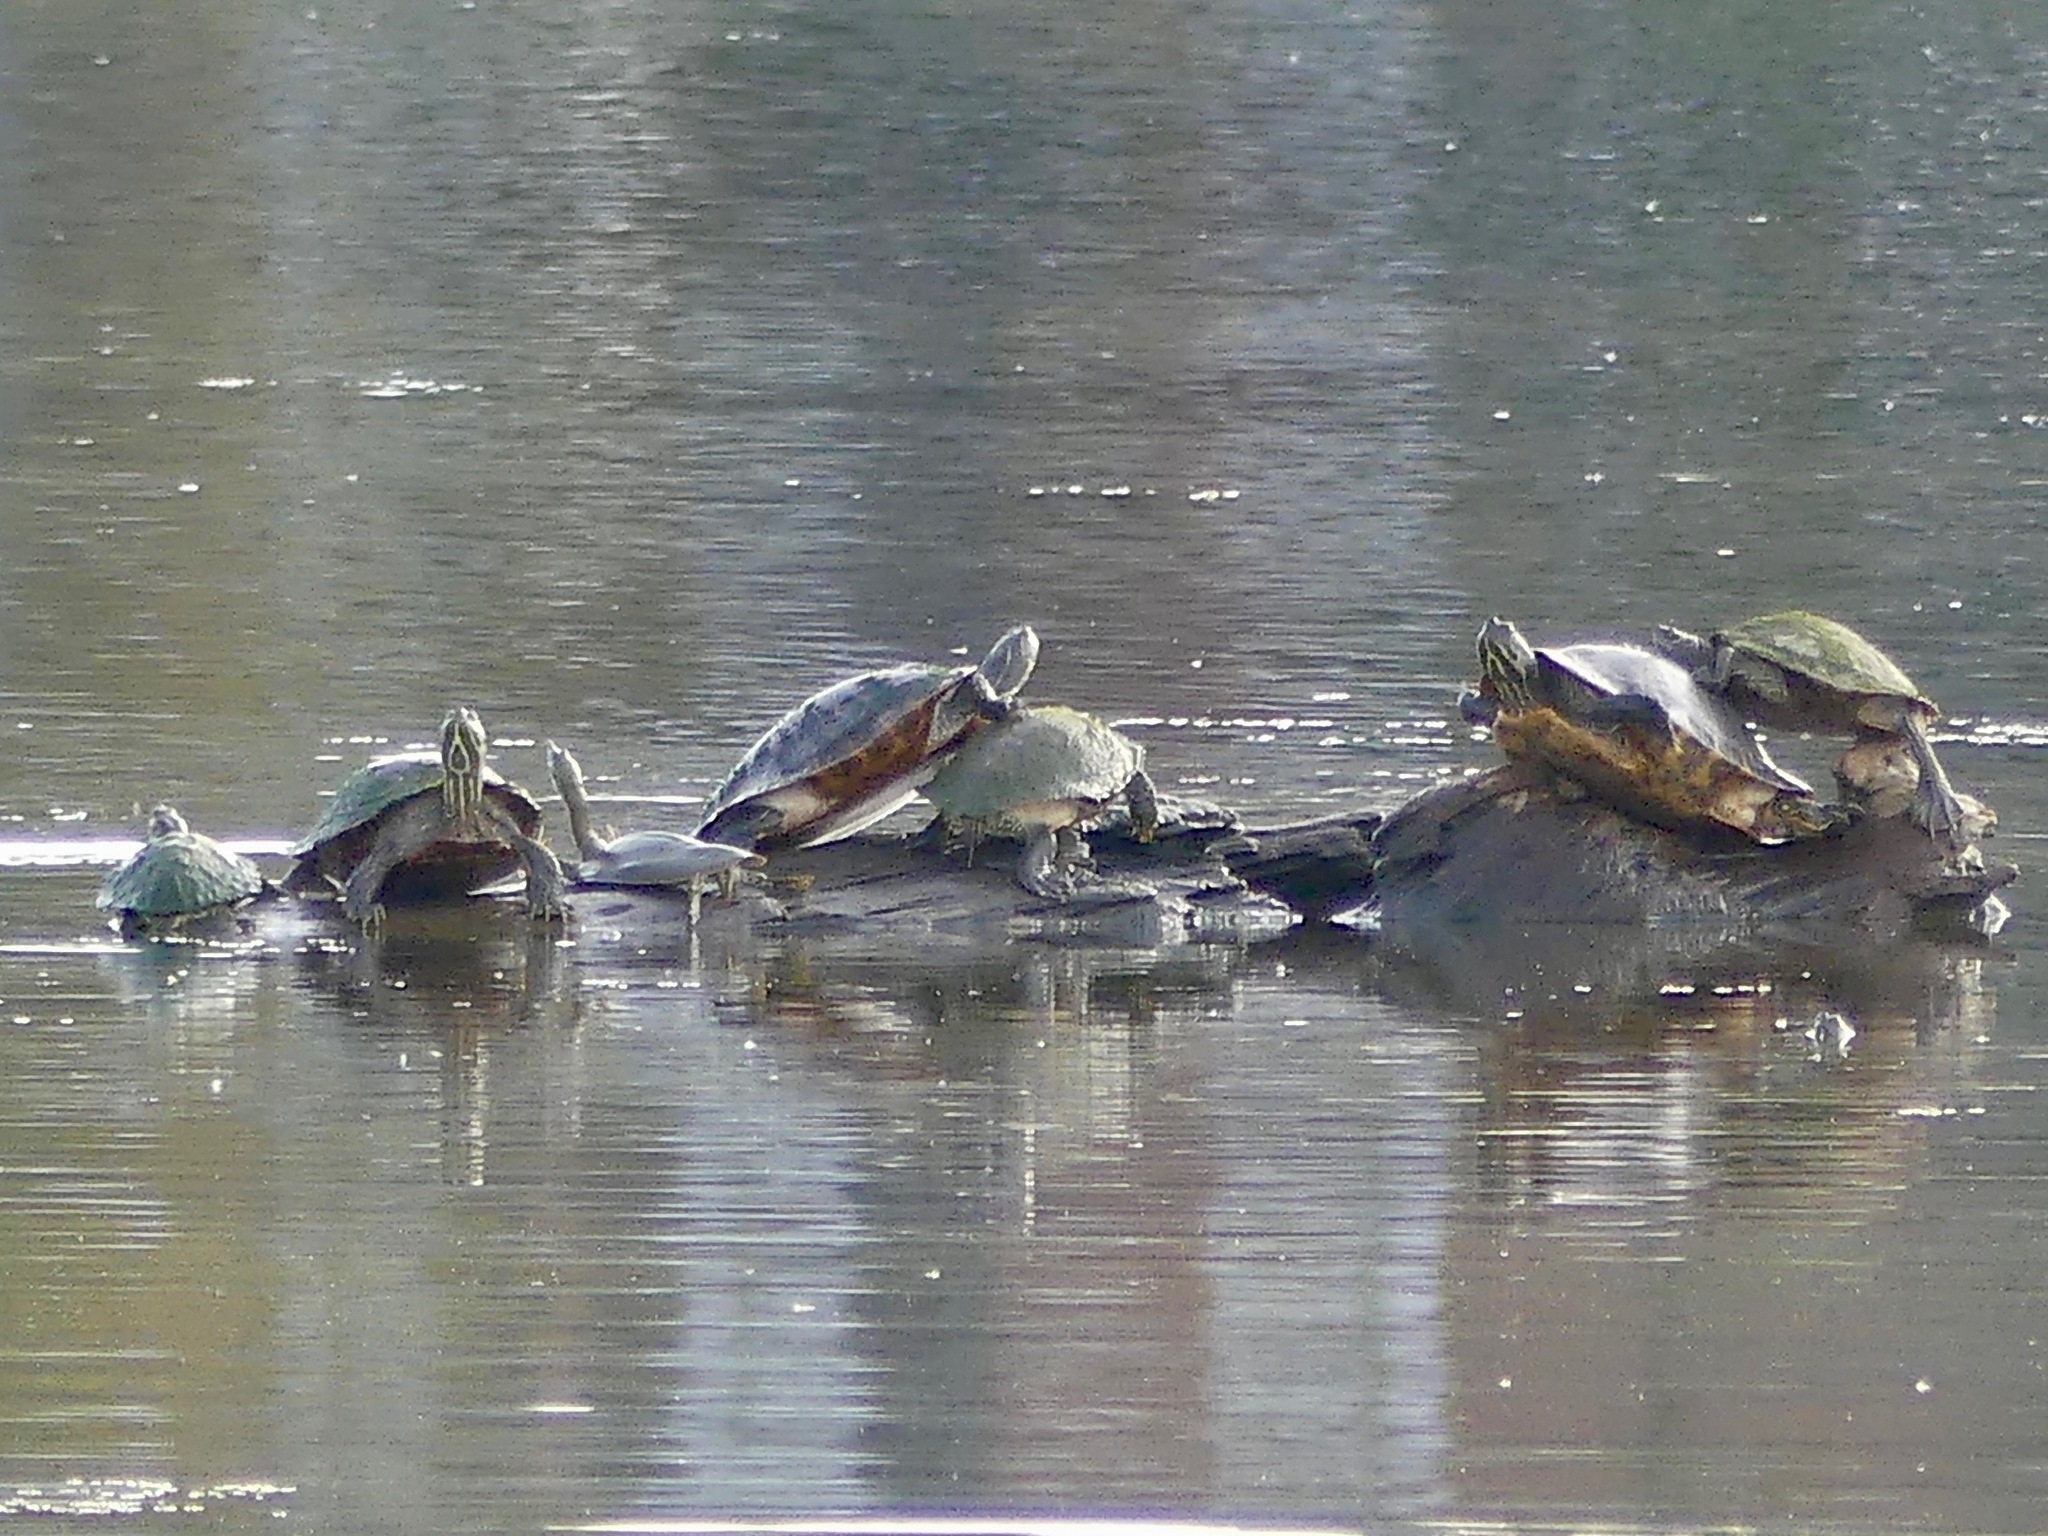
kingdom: Animalia
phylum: Chordata
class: Testudines
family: Emydidae
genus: Pseudemys
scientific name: Pseudemys concinna
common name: Eastern river cooter
